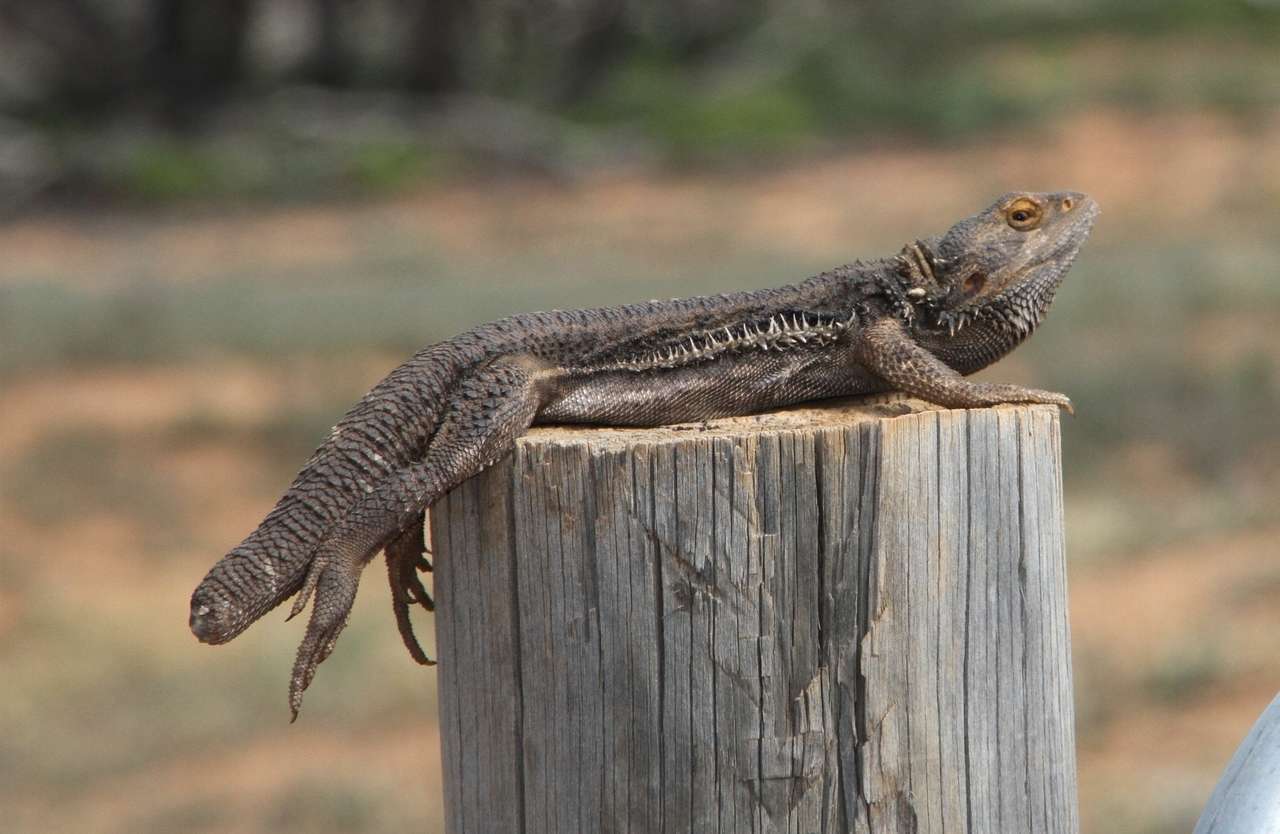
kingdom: Animalia
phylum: Chordata
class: Squamata
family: Agamidae
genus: Pogona
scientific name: Pogona vitticeps
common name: Central bearded dragon
